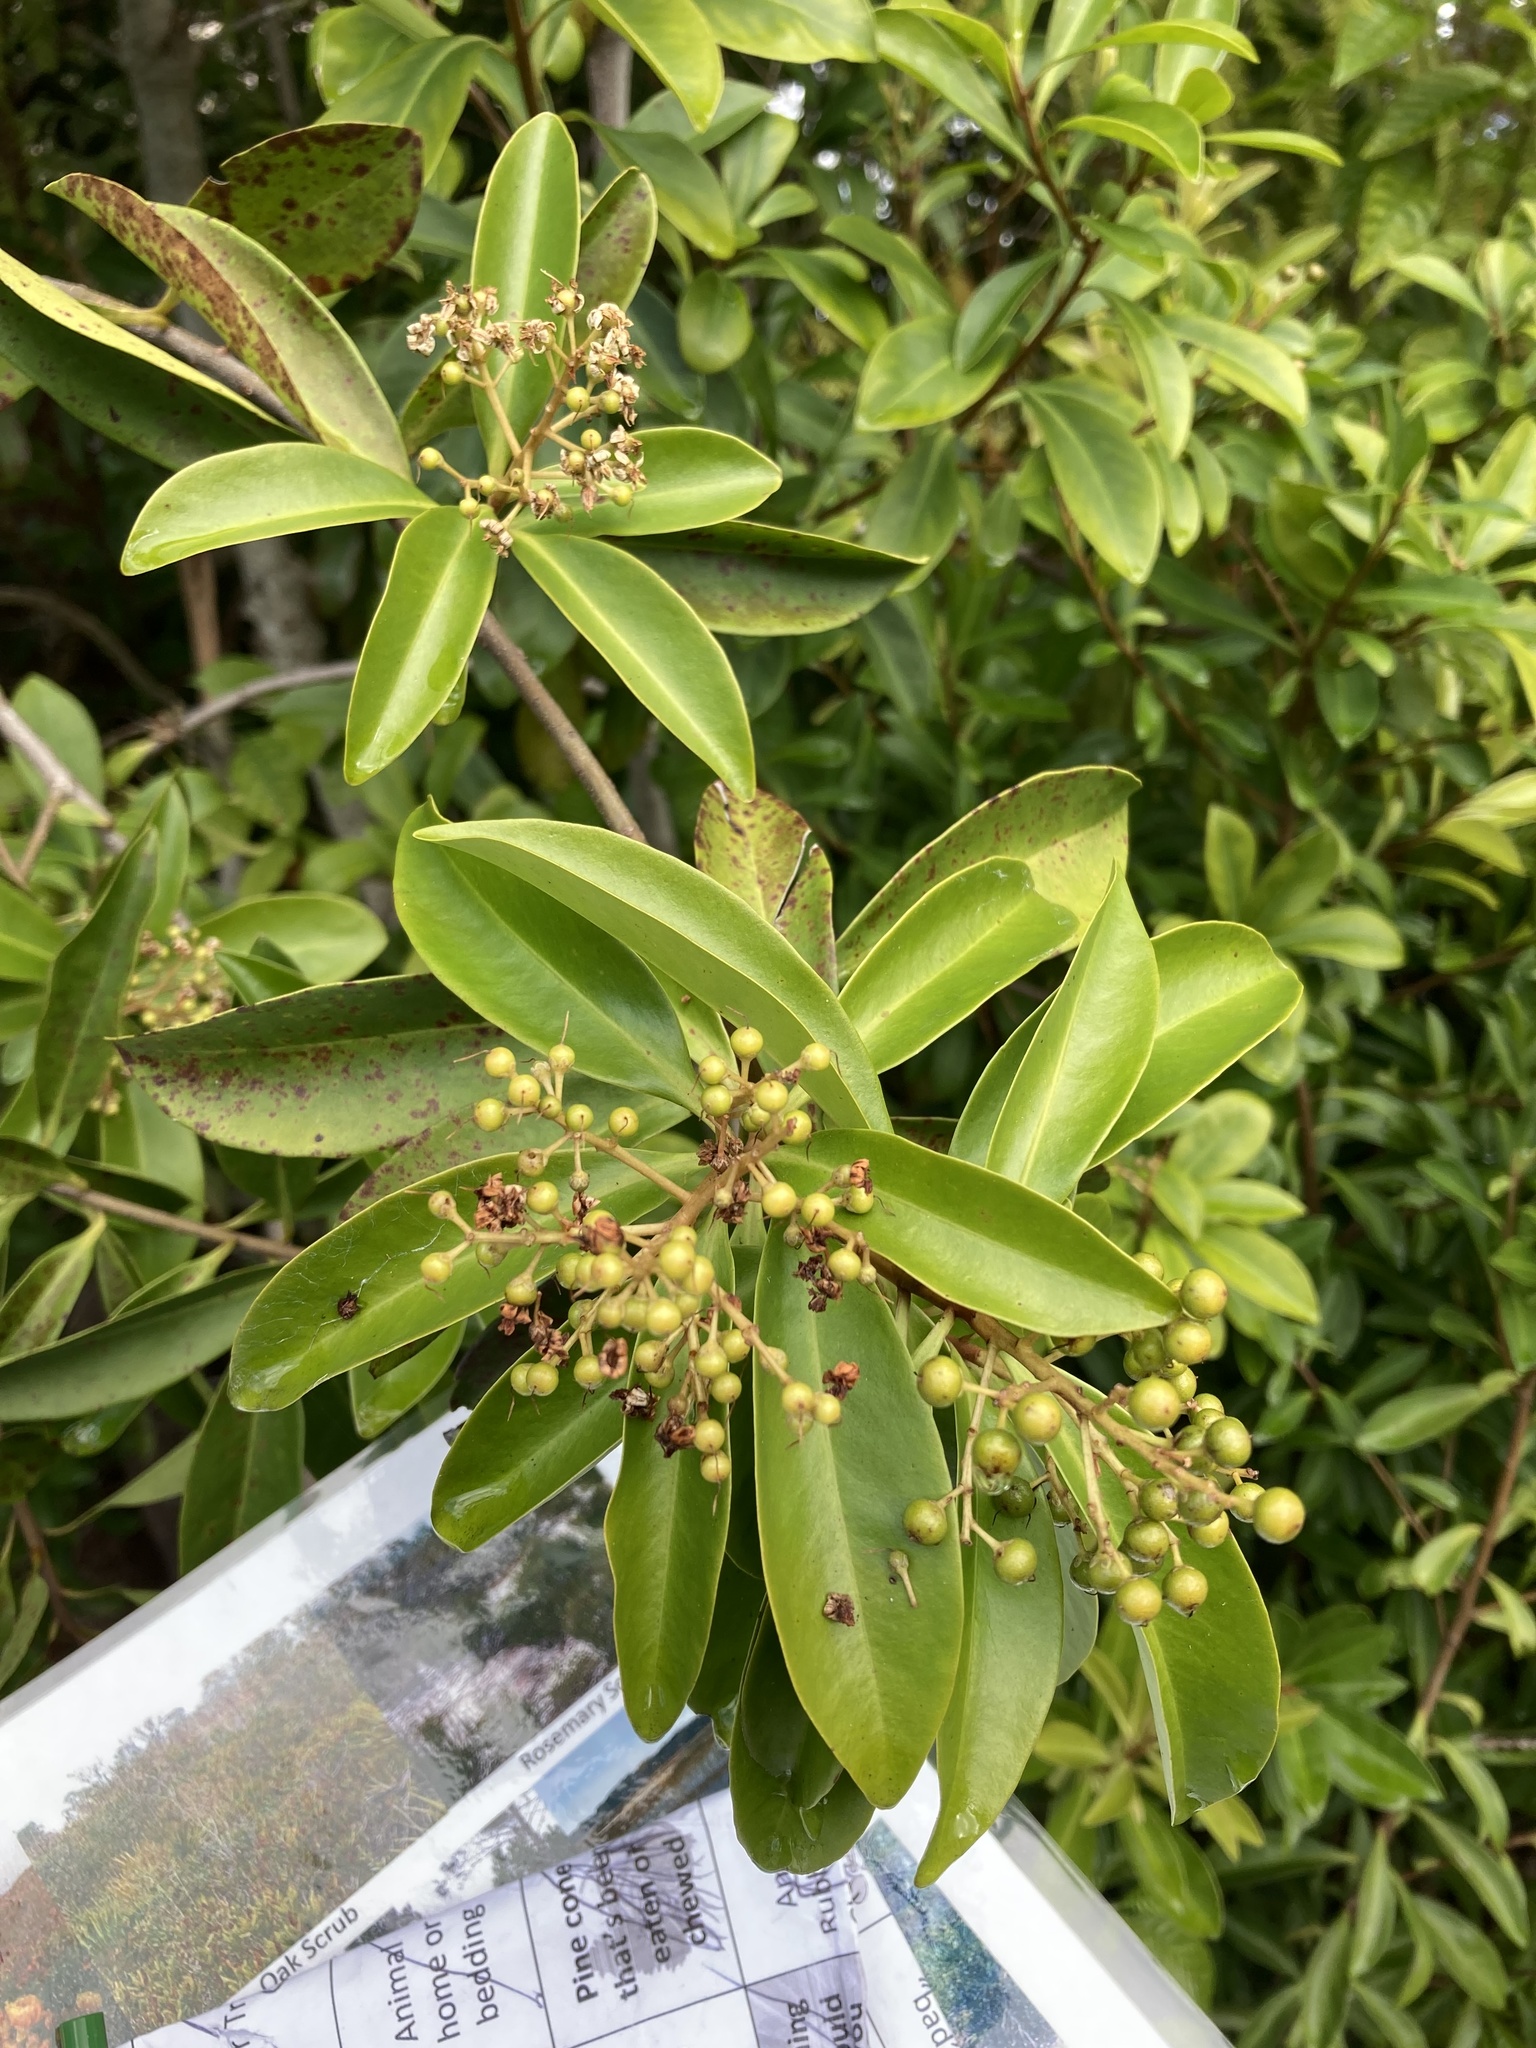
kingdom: Plantae
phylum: Tracheophyta
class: Magnoliopsida
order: Ericales
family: Primulaceae
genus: Ardisia
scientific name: Ardisia escallonioides
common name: Island marlberry
